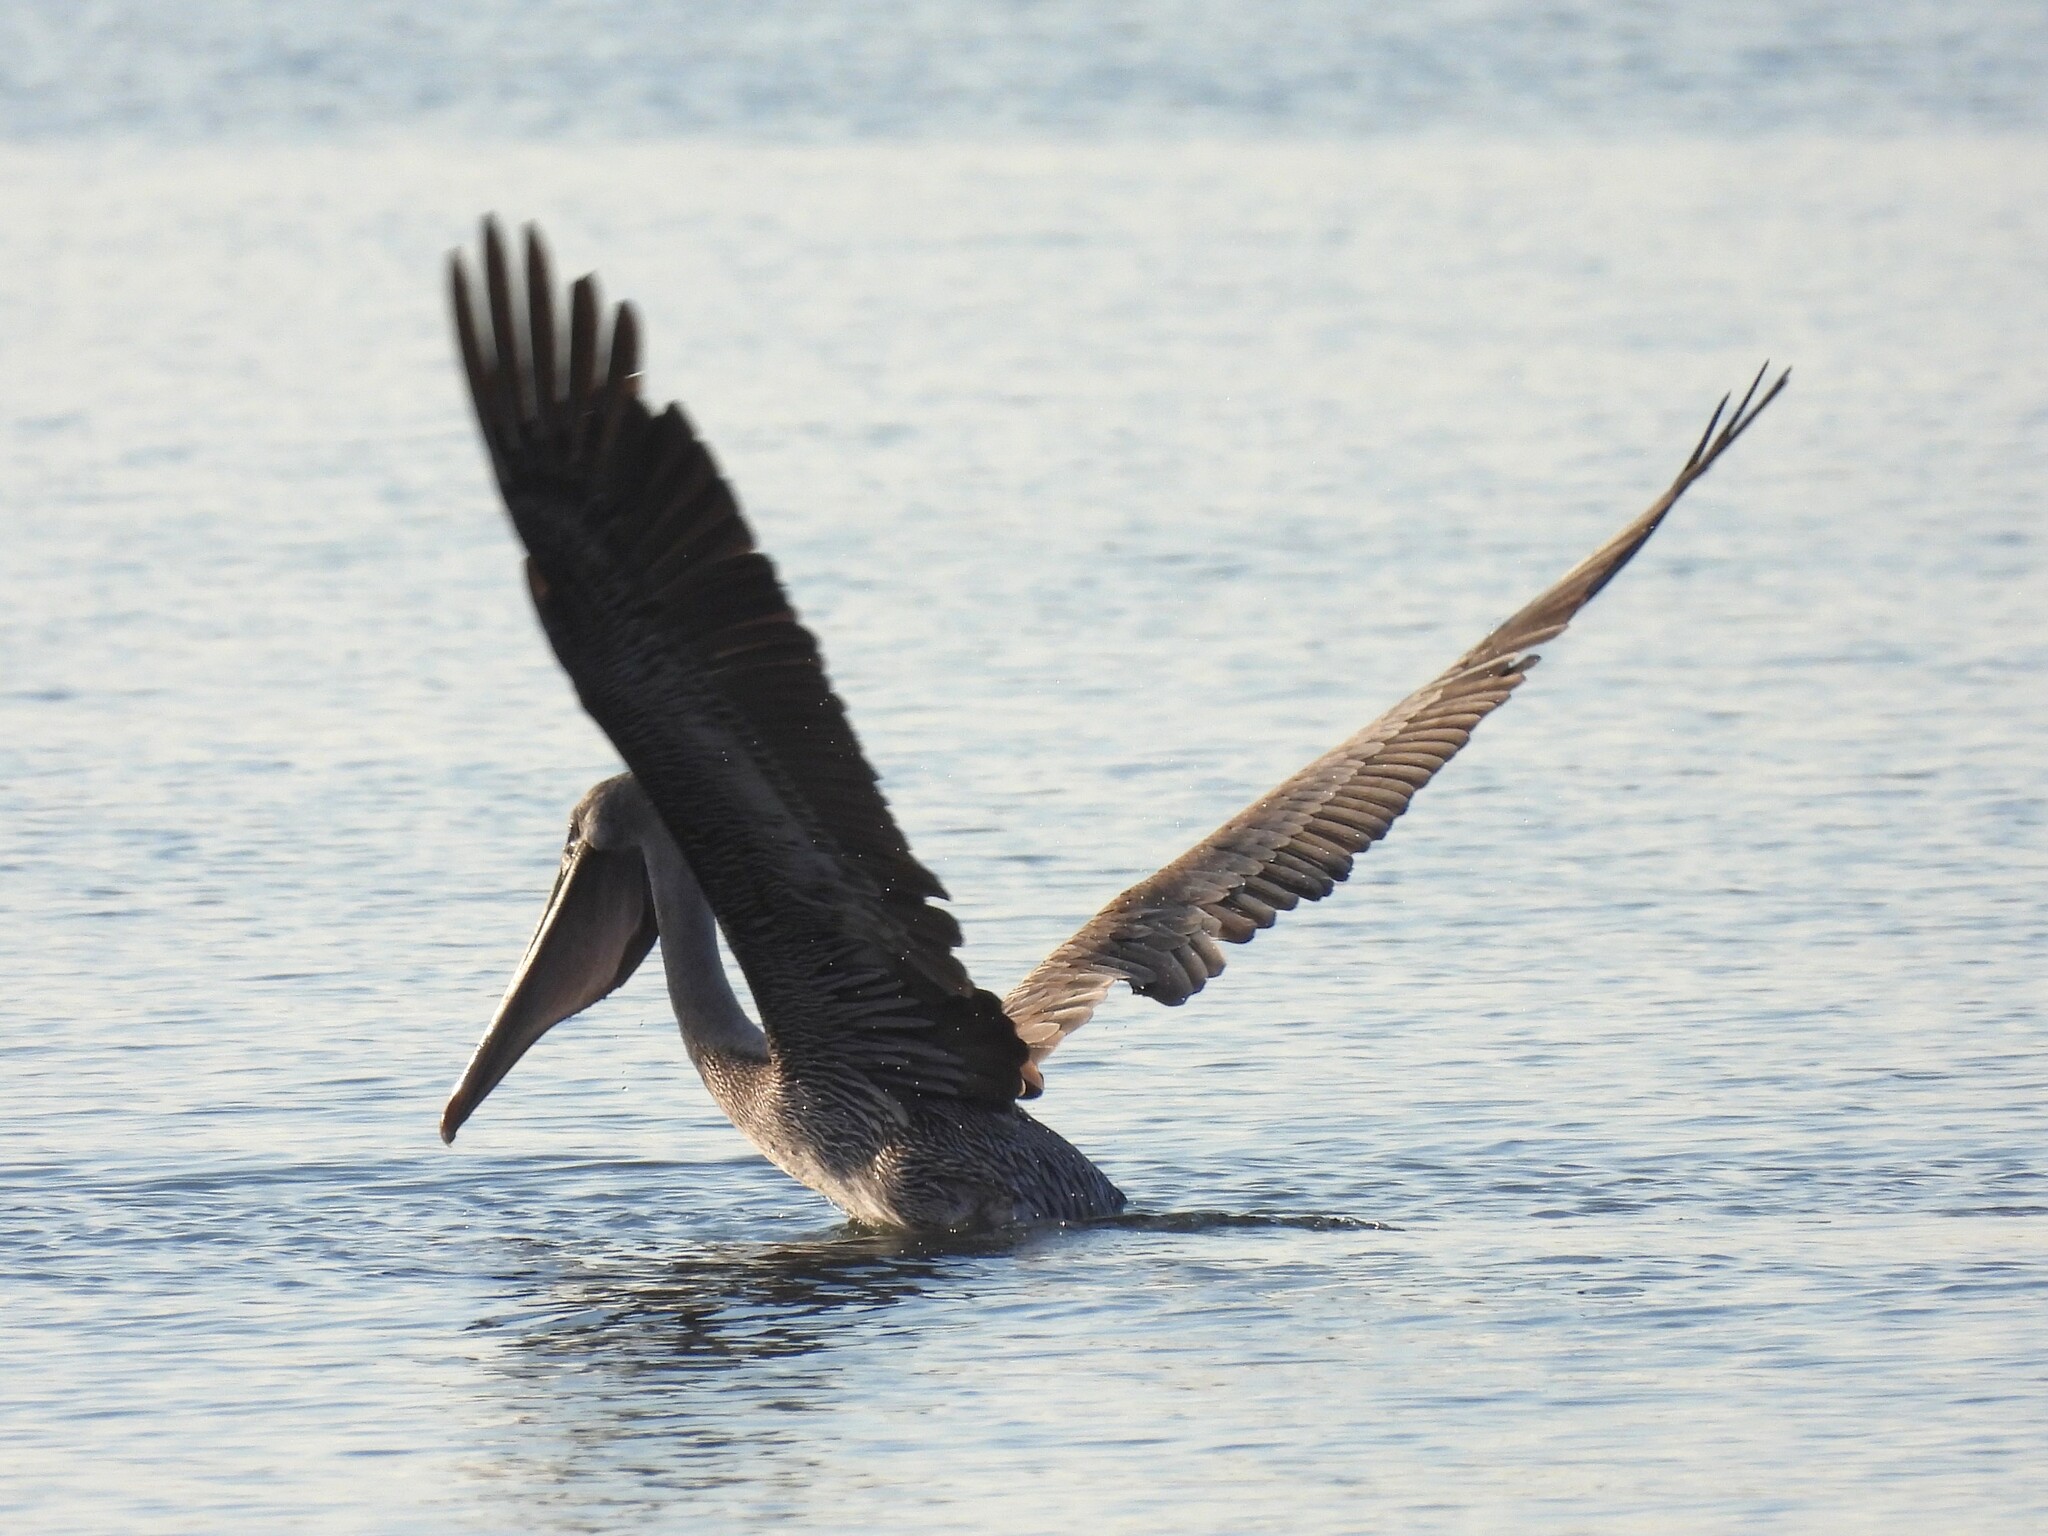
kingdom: Animalia
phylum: Chordata
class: Aves
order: Pelecaniformes
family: Pelecanidae
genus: Pelecanus
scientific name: Pelecanus occidentalis
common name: Brown pelican
